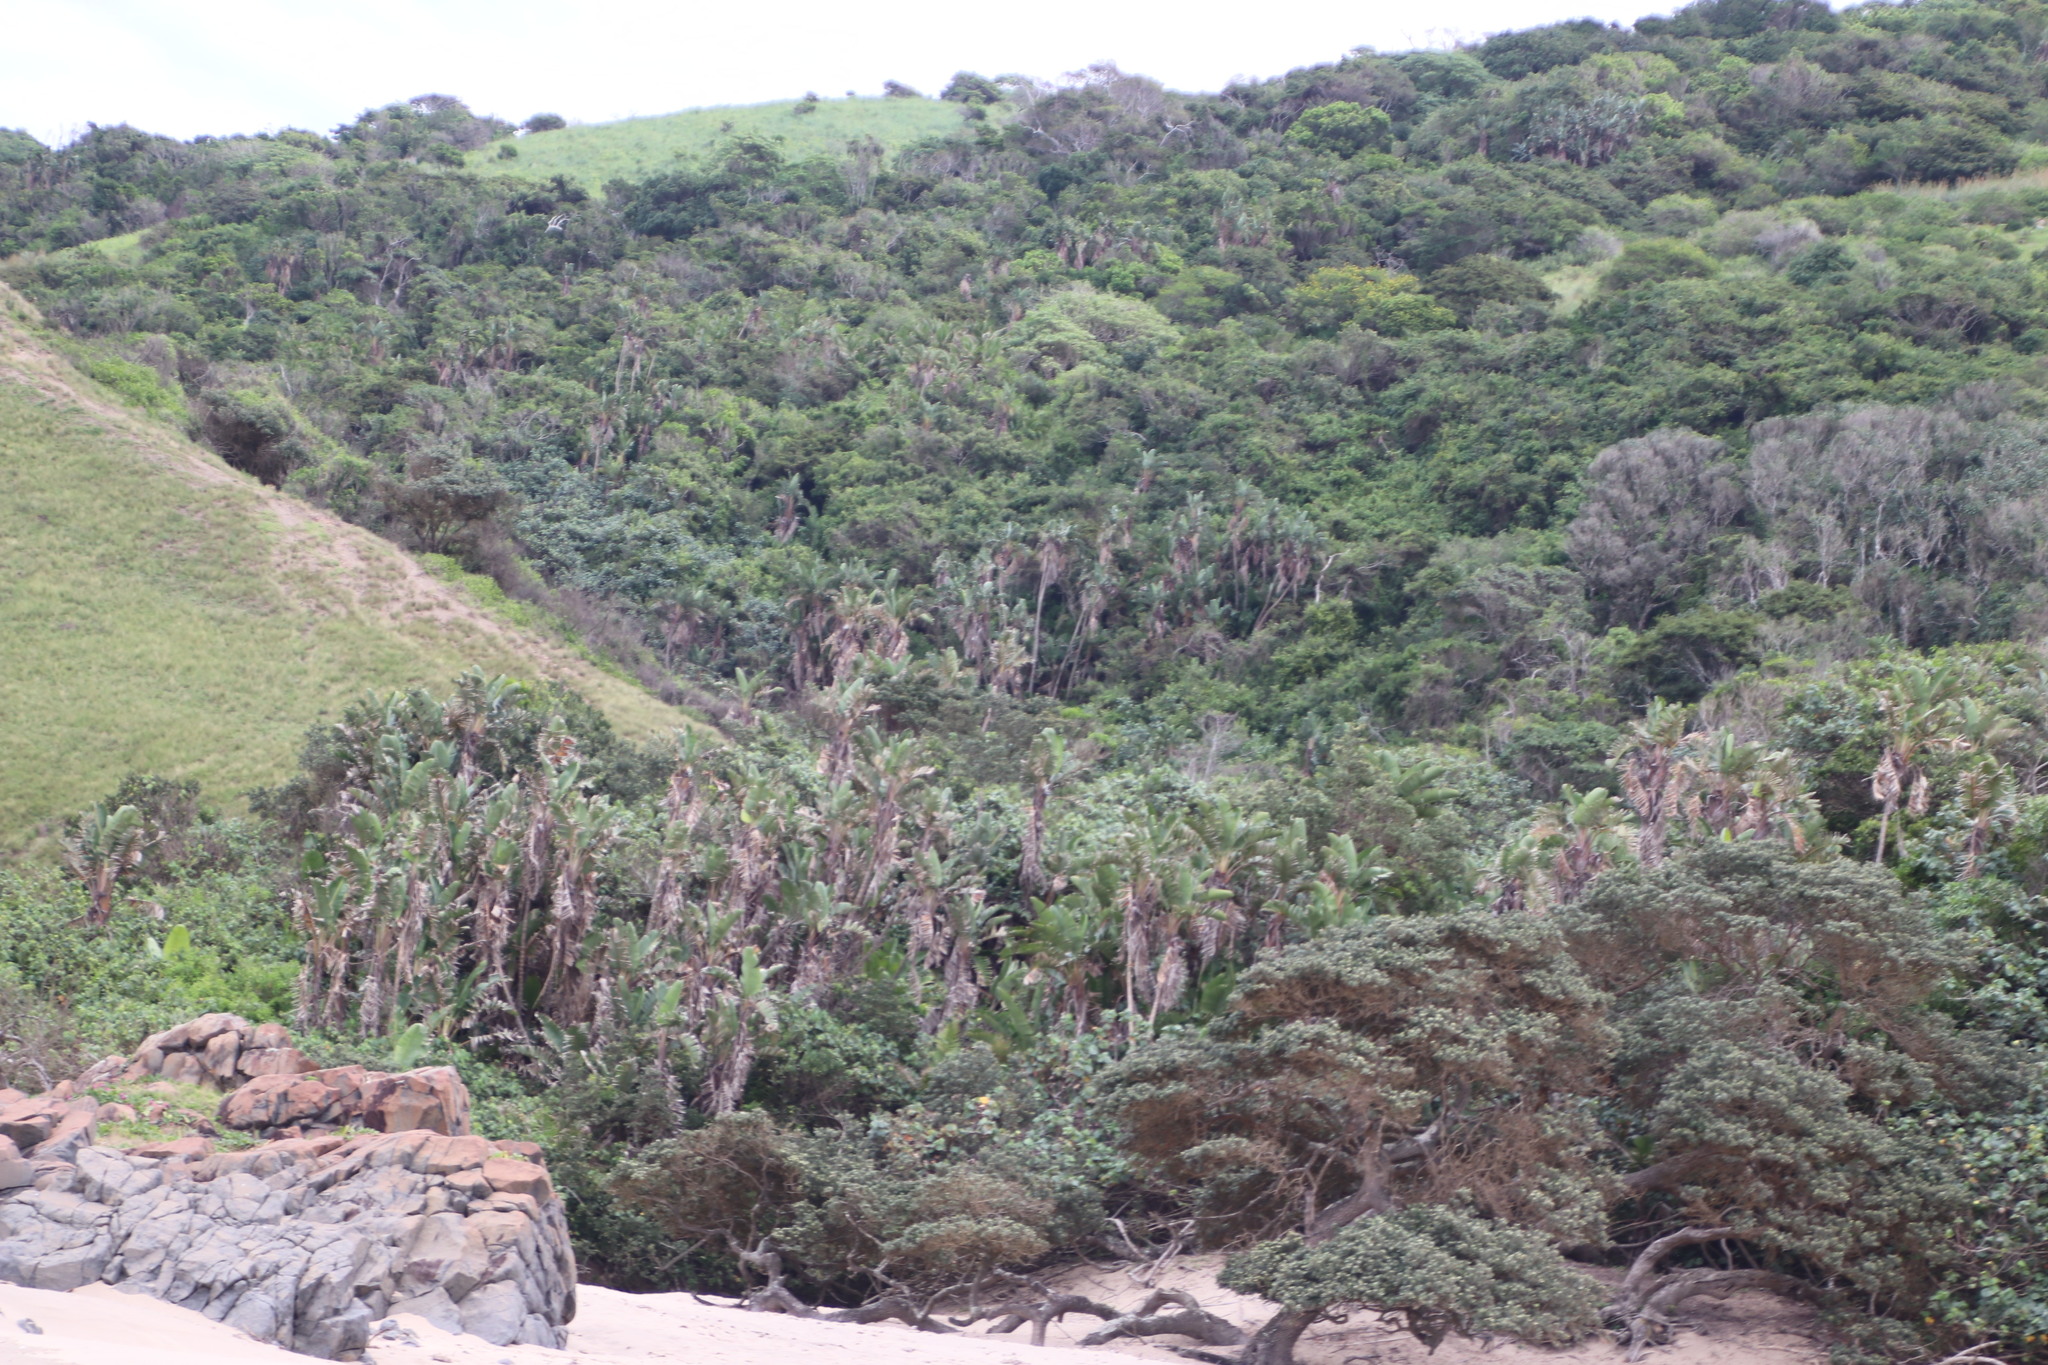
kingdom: Plantae
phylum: Tracheophyta
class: Liliopsida
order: Zingiberales
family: Strelitziaceae
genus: Strelitzia
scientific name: Strelitzia nicolai
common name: Bird-of-paradise tree
